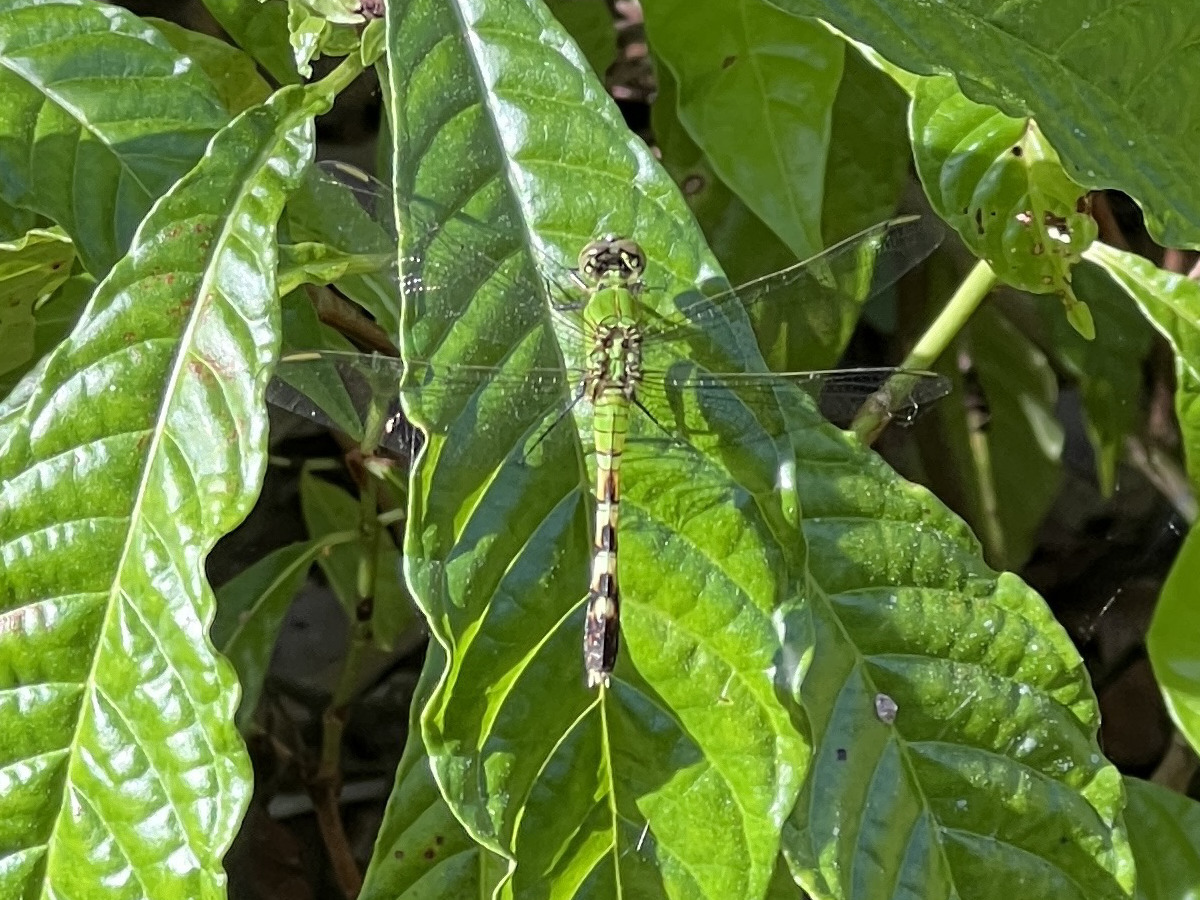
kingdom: Animalia
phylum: Arthropoda
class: Insecta
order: Odonata
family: Libellulidae
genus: Erythemis
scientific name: Erythemis simplicicollis
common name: Eastern pondhawk
